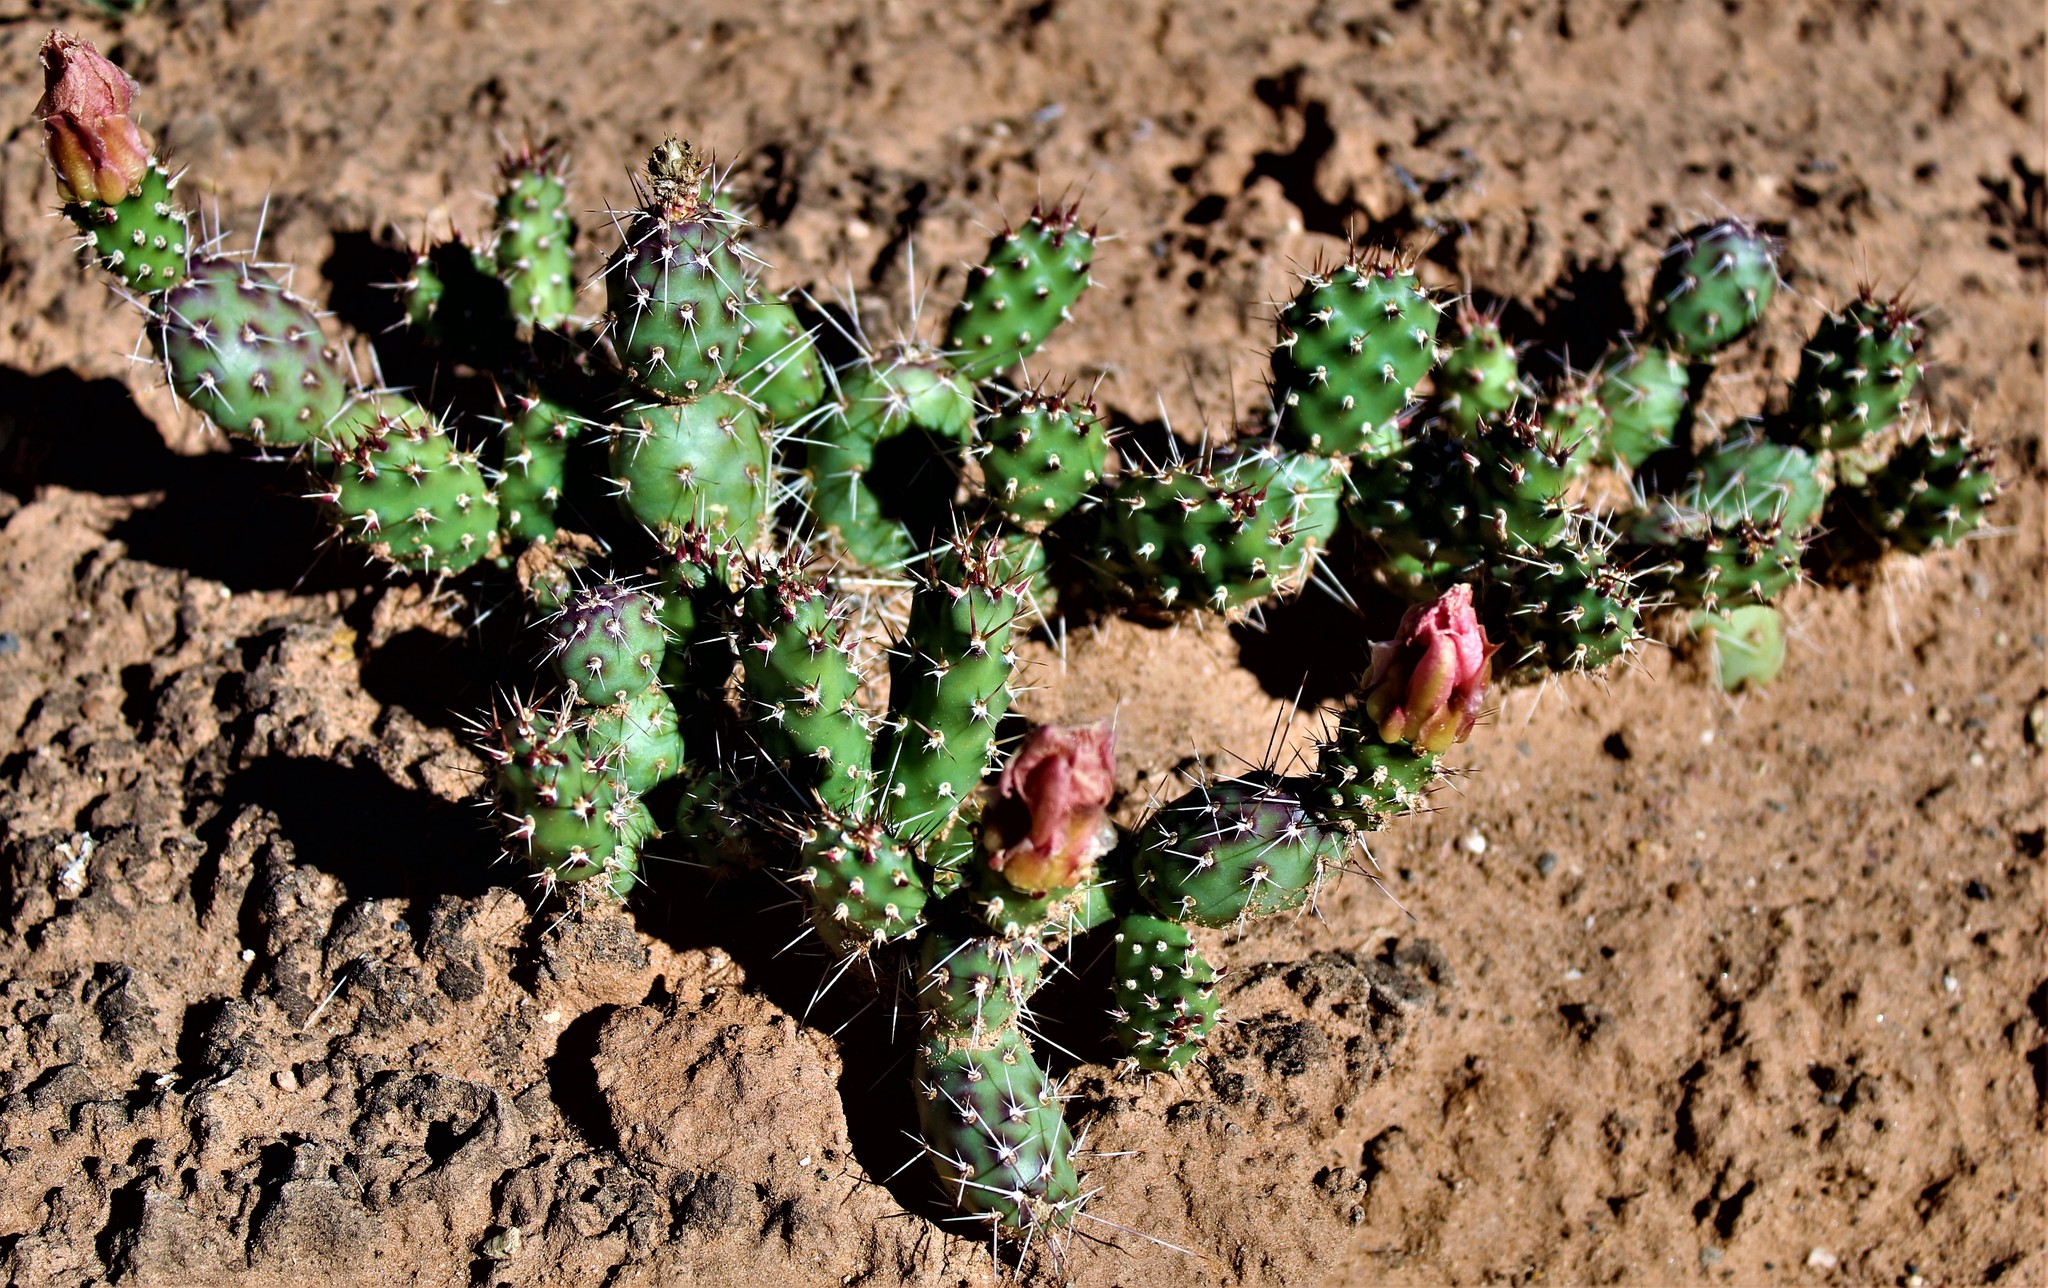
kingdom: Plantae
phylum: Tracheophyta
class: Magnoliopsida
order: Caryophyllales
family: Cactaceae
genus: Opuntia
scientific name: Opuntia fragilis
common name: Brittle cactus
